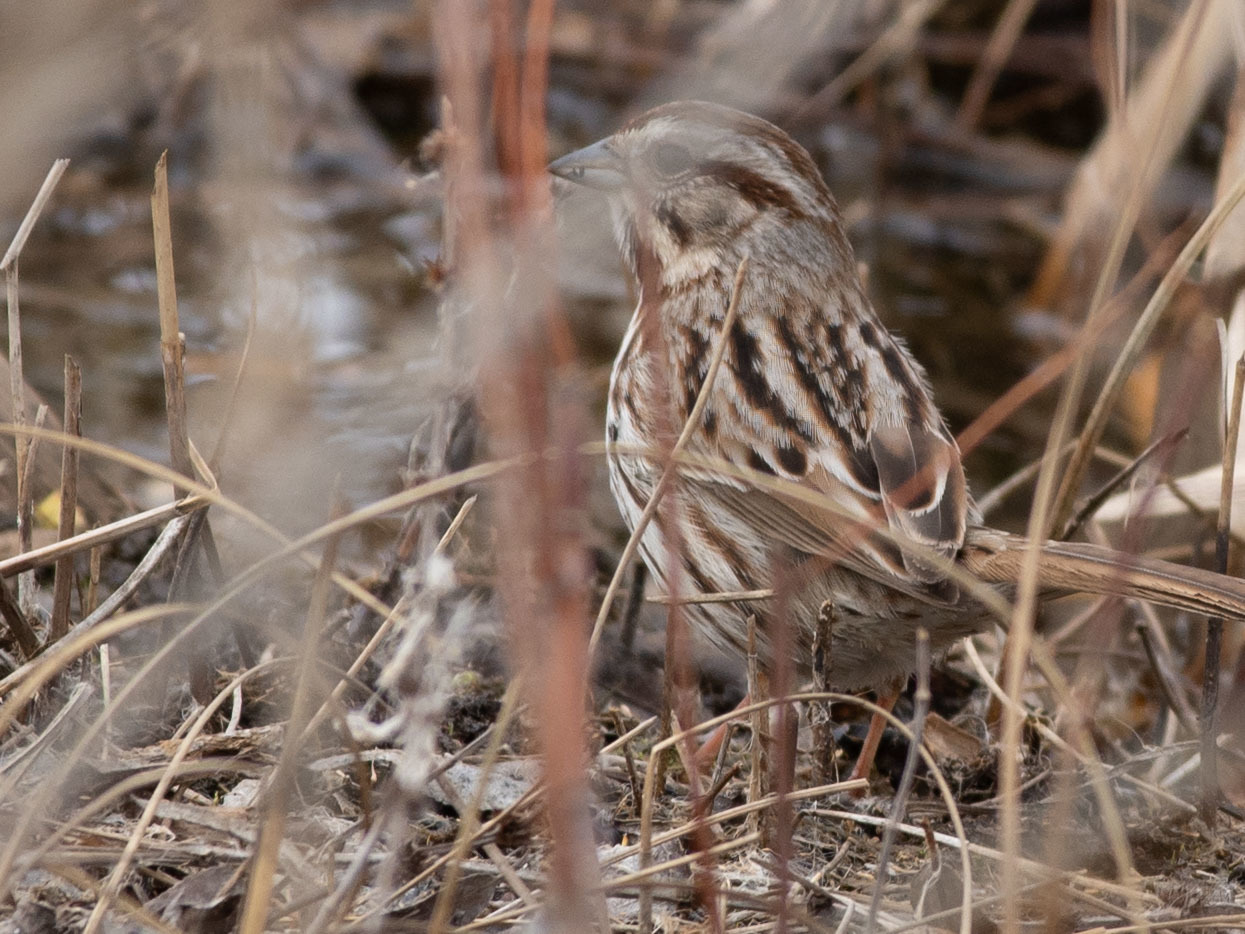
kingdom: Animalia
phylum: Chordata
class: Aves
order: Passeriformes
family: Passerellidae
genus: Melospiza
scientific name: Melospiza melodia
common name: Song sparrow
